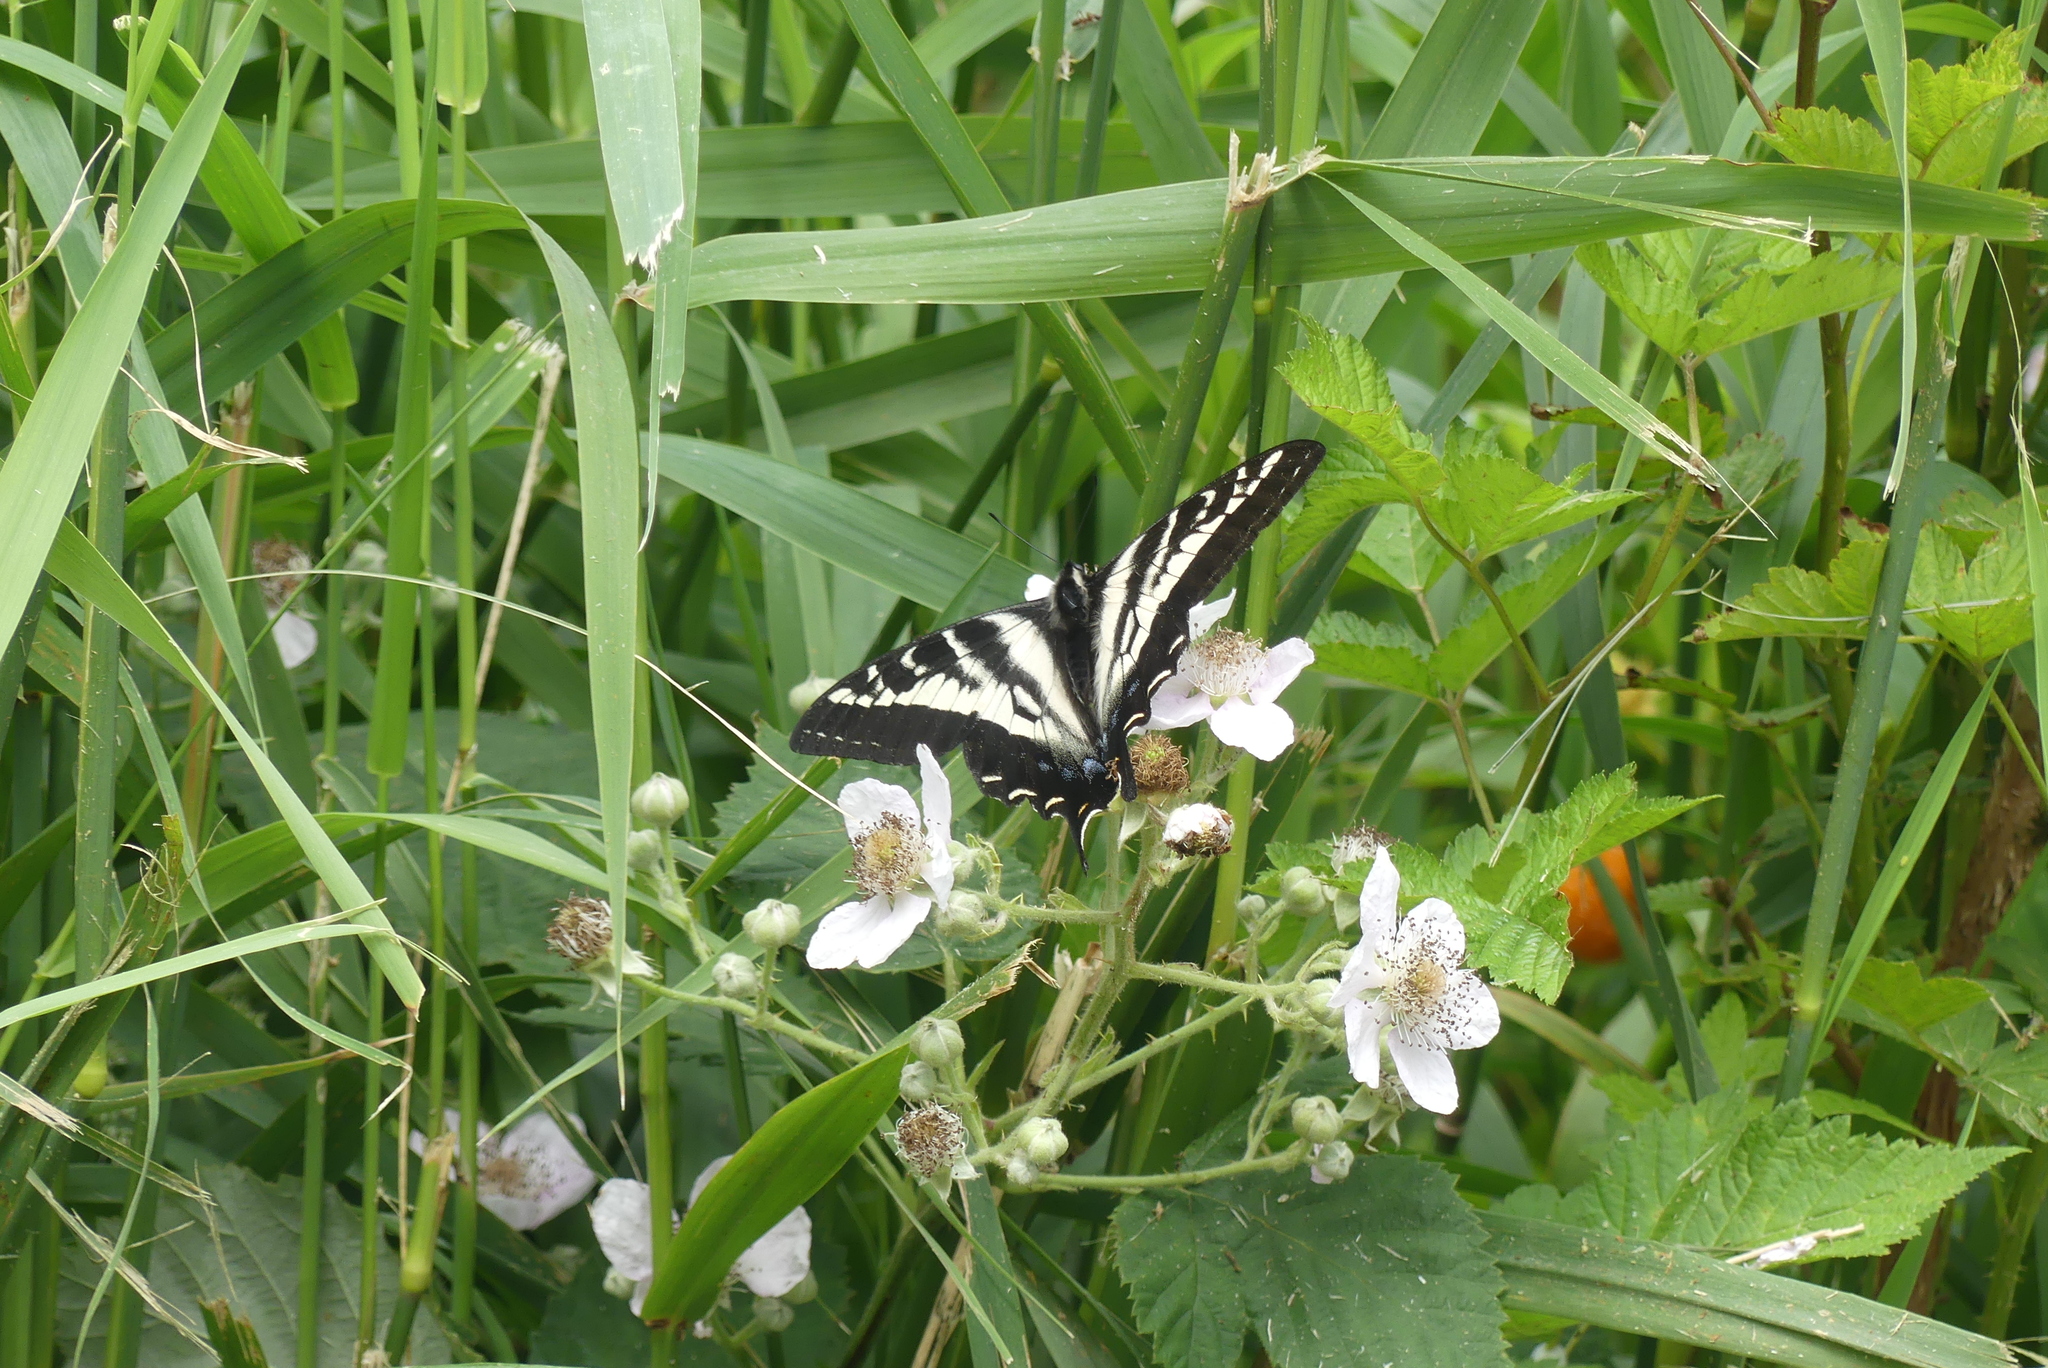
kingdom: Animalia
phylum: Arthropoda
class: Insecta
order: Lepidoptera
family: Papilionidae
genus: Papilio
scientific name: Papilio eurymedon
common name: Pale tiger swallowtail
